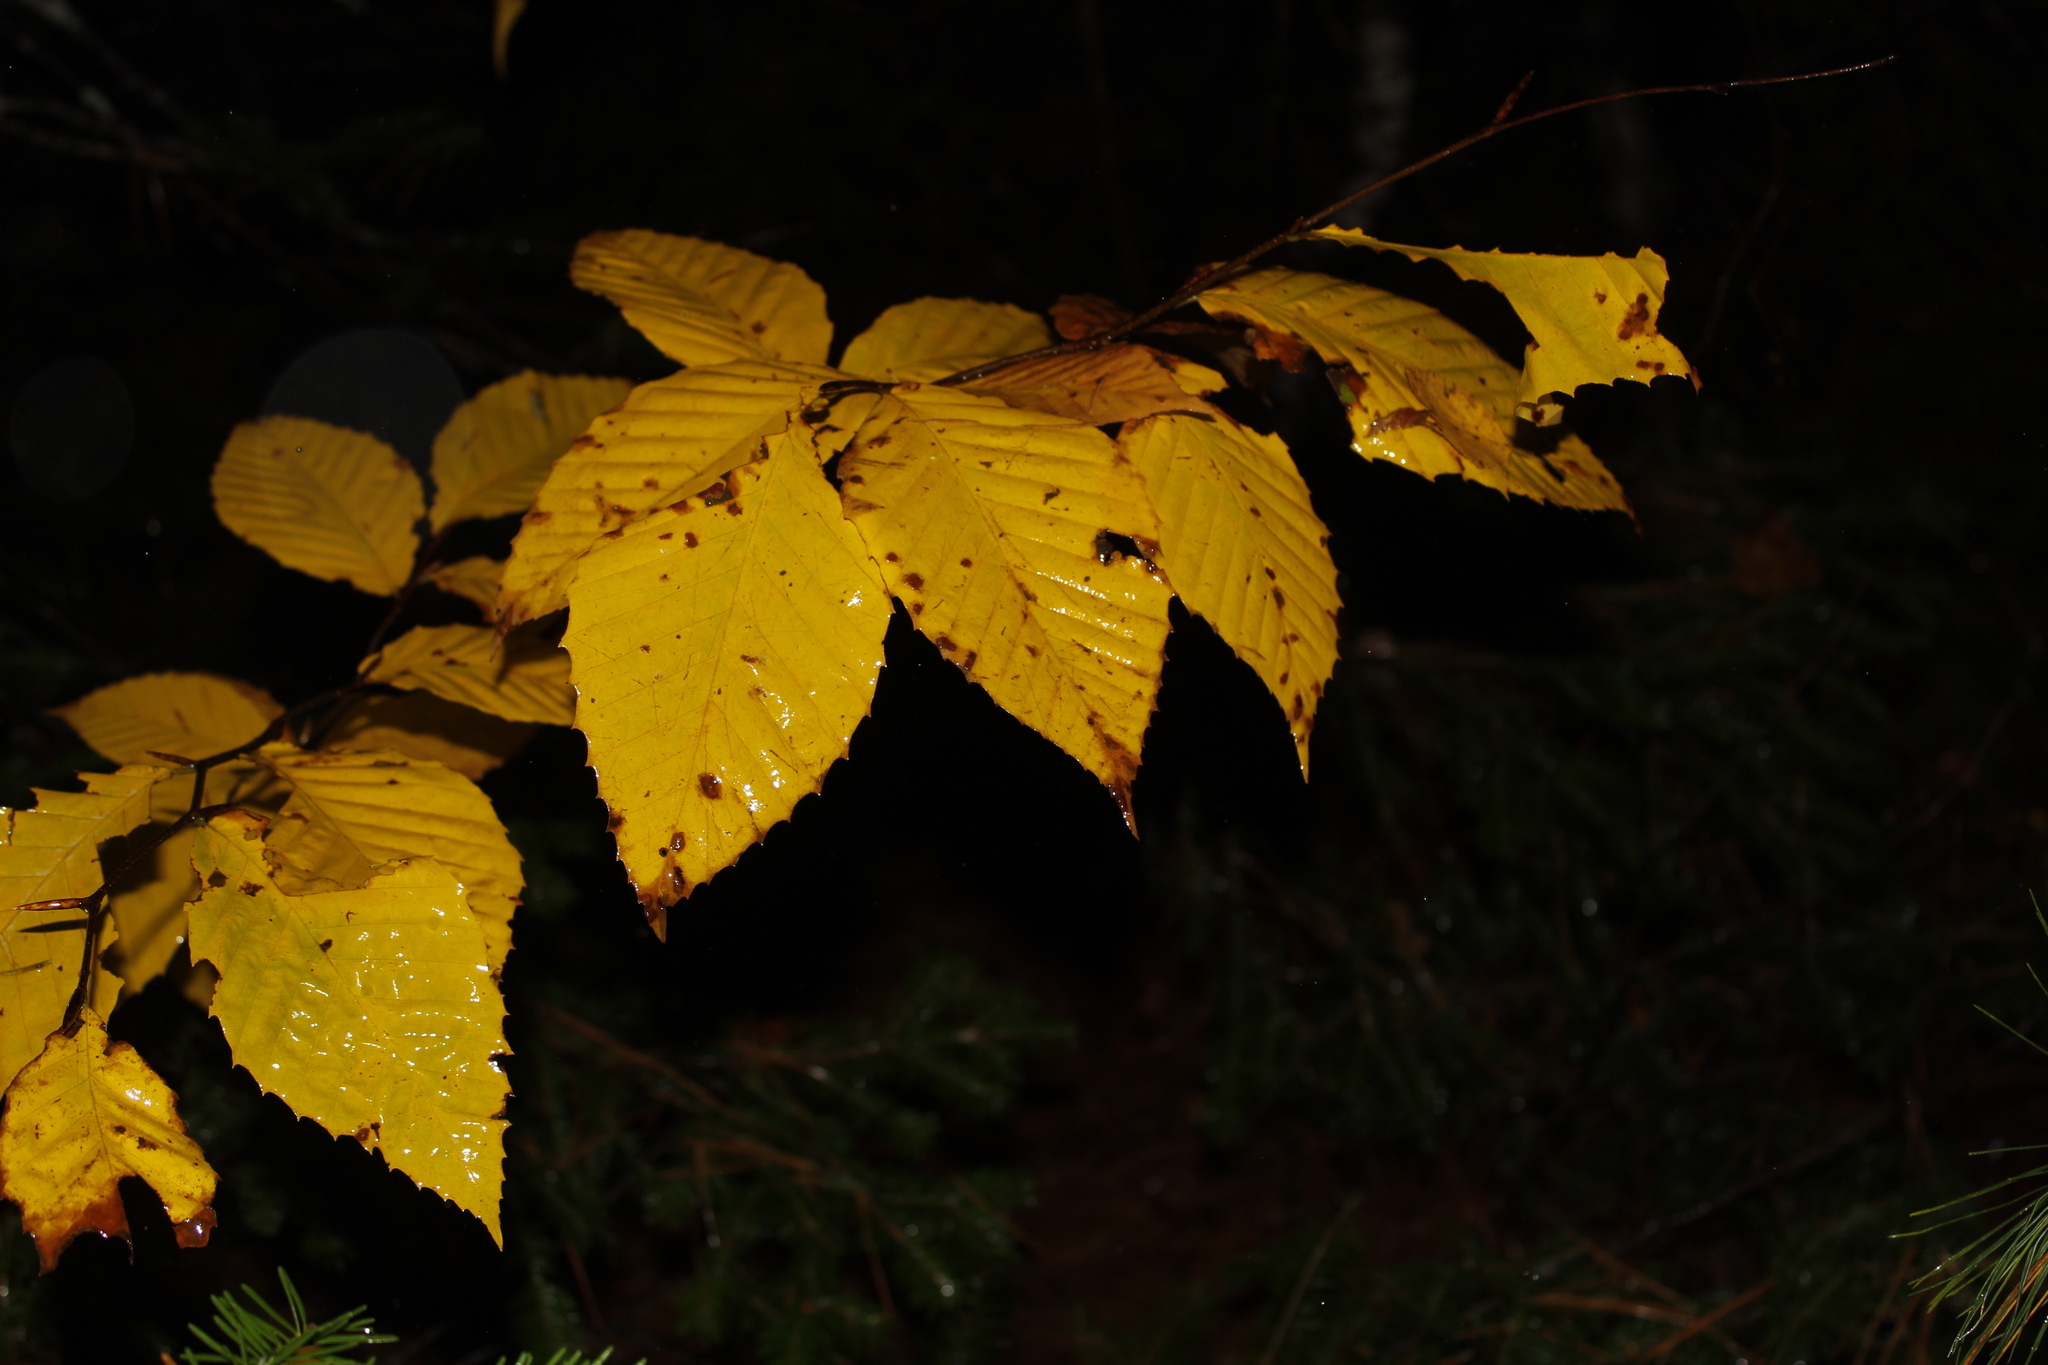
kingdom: Plantae
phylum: Tracheophyta
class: Magnoliopsida
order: Fagales
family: Fagaceae
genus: Fagus
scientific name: Fagus grandifolia
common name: American beech
